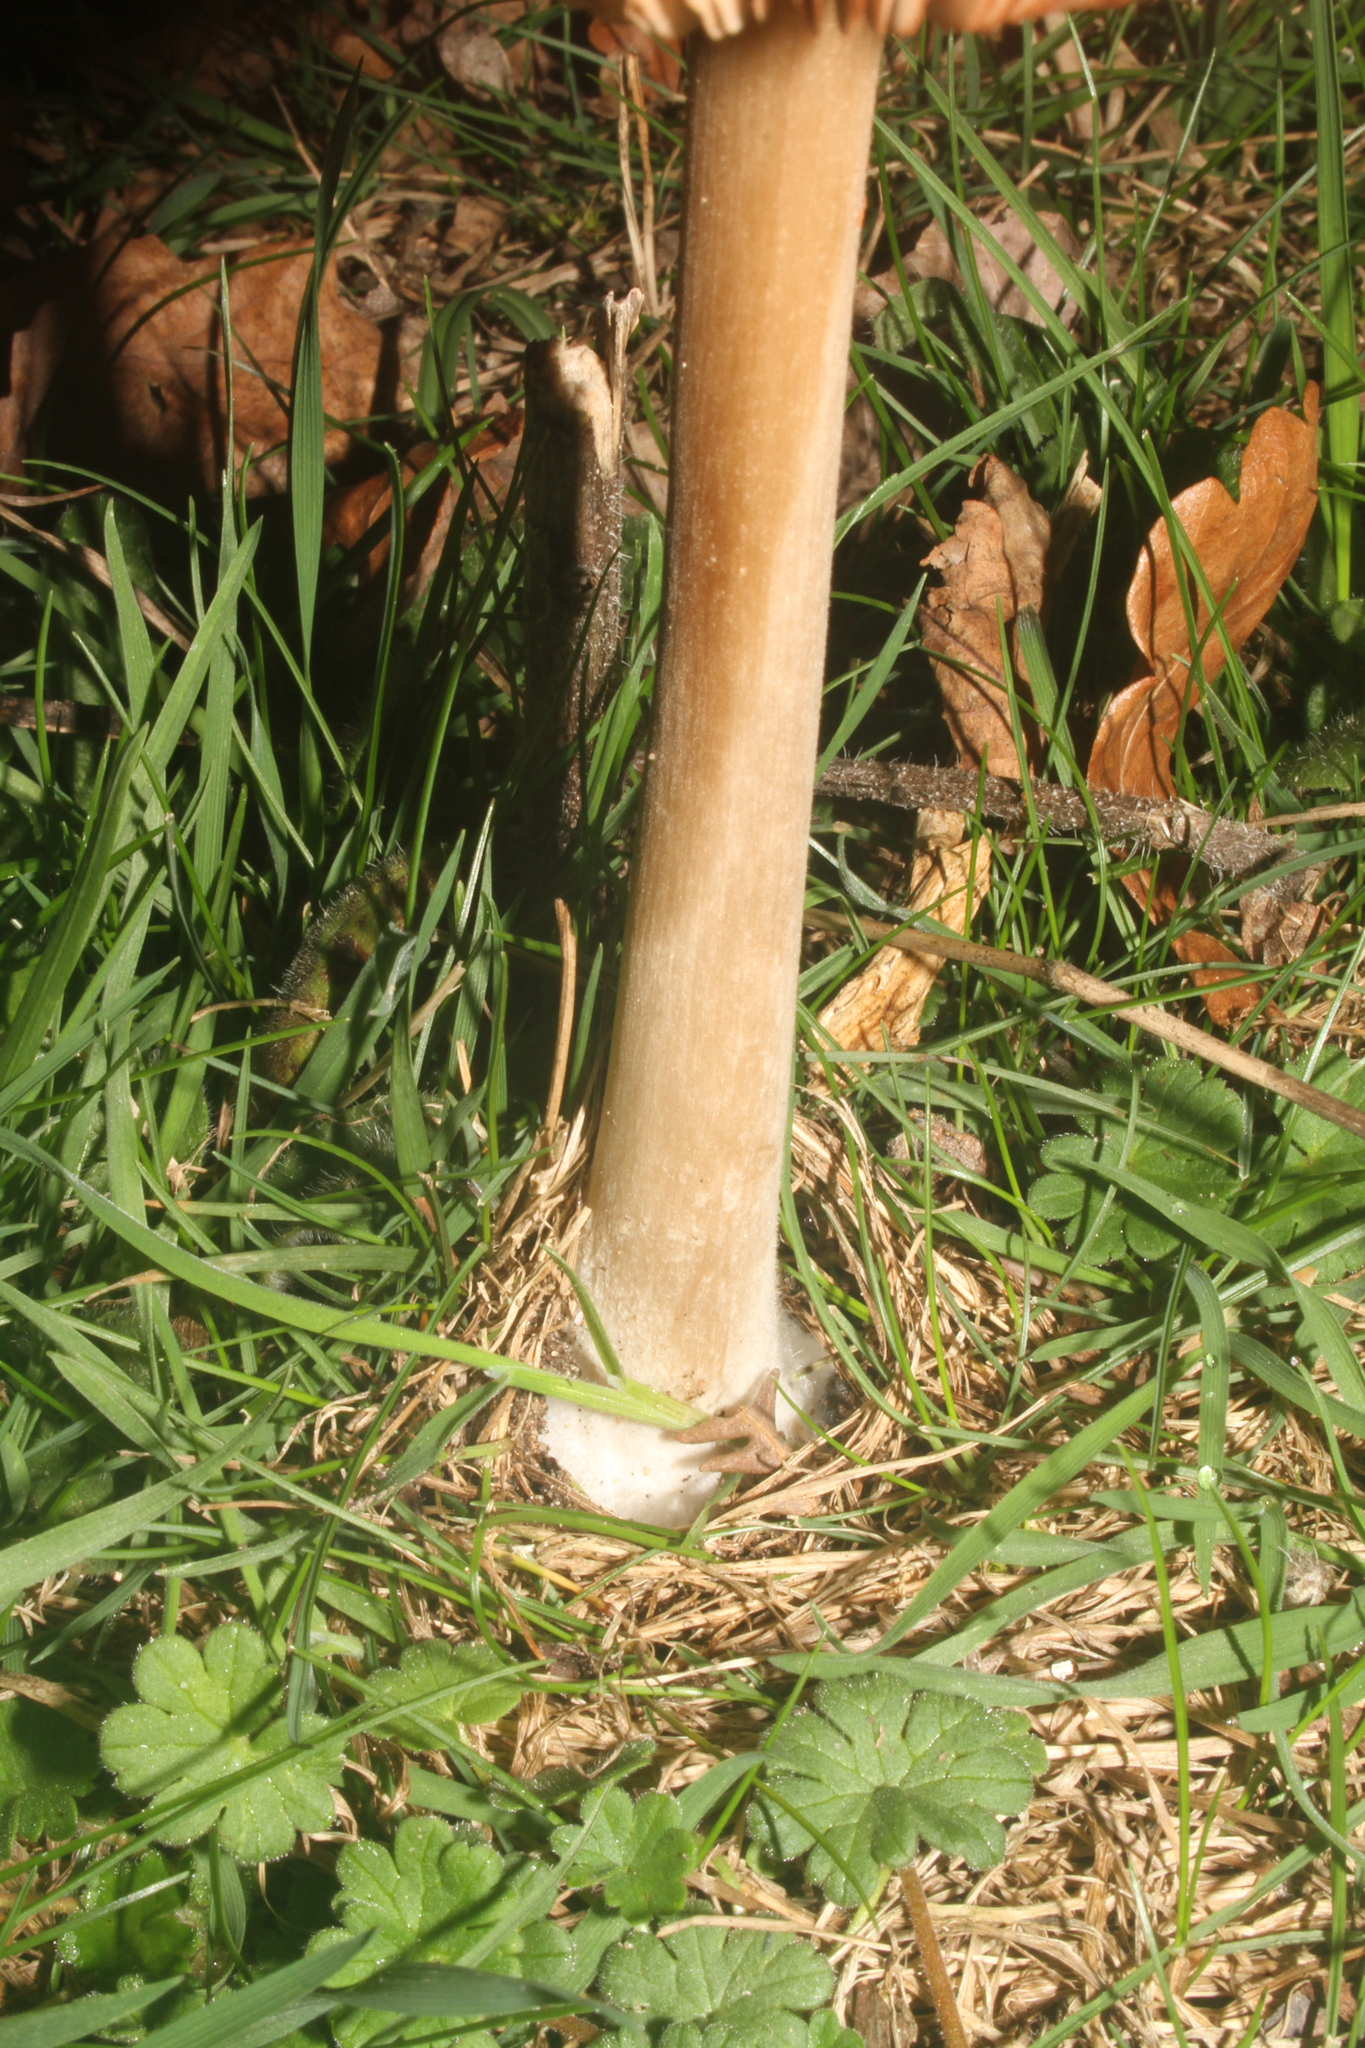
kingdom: Fungi
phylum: Basidiomycota
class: Agaricomycetes
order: Agaricales
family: Pluteaceae
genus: Volvopluteus
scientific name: Volvopluteus gloiocephalus
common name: Stubble rosegill
